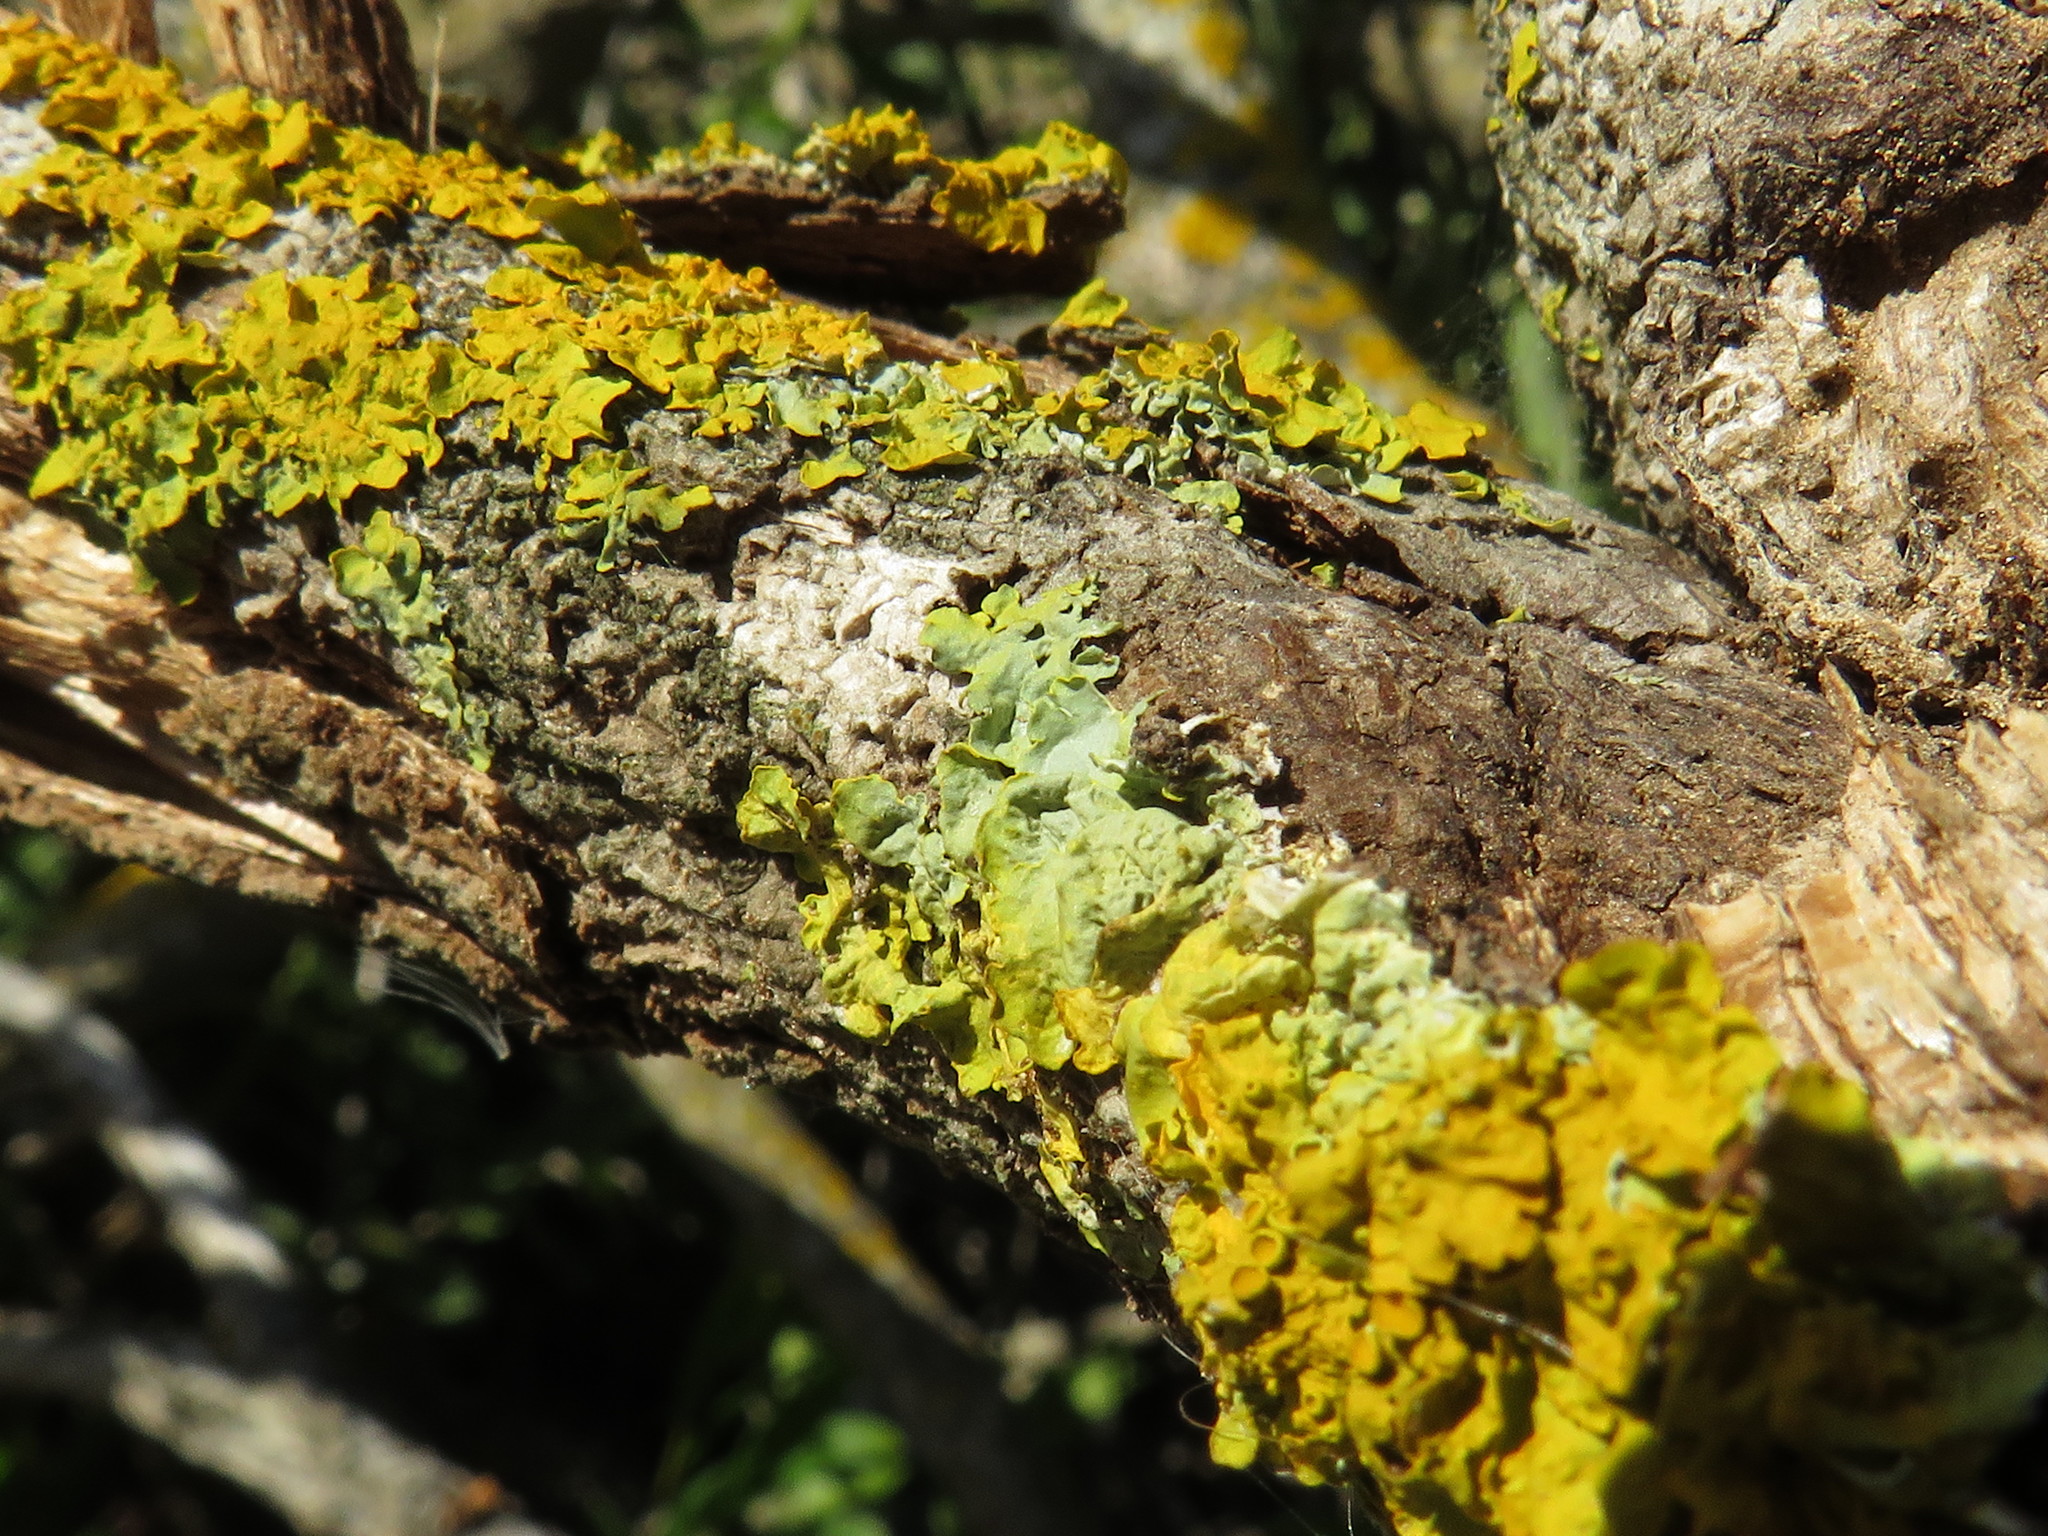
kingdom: Fungi
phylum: Ascomycota
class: Lecanoromycetes
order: Teloschistales
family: Teloschistaceae
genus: Xanthoria
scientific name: Xanthoria parietina
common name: Common orange lichen
